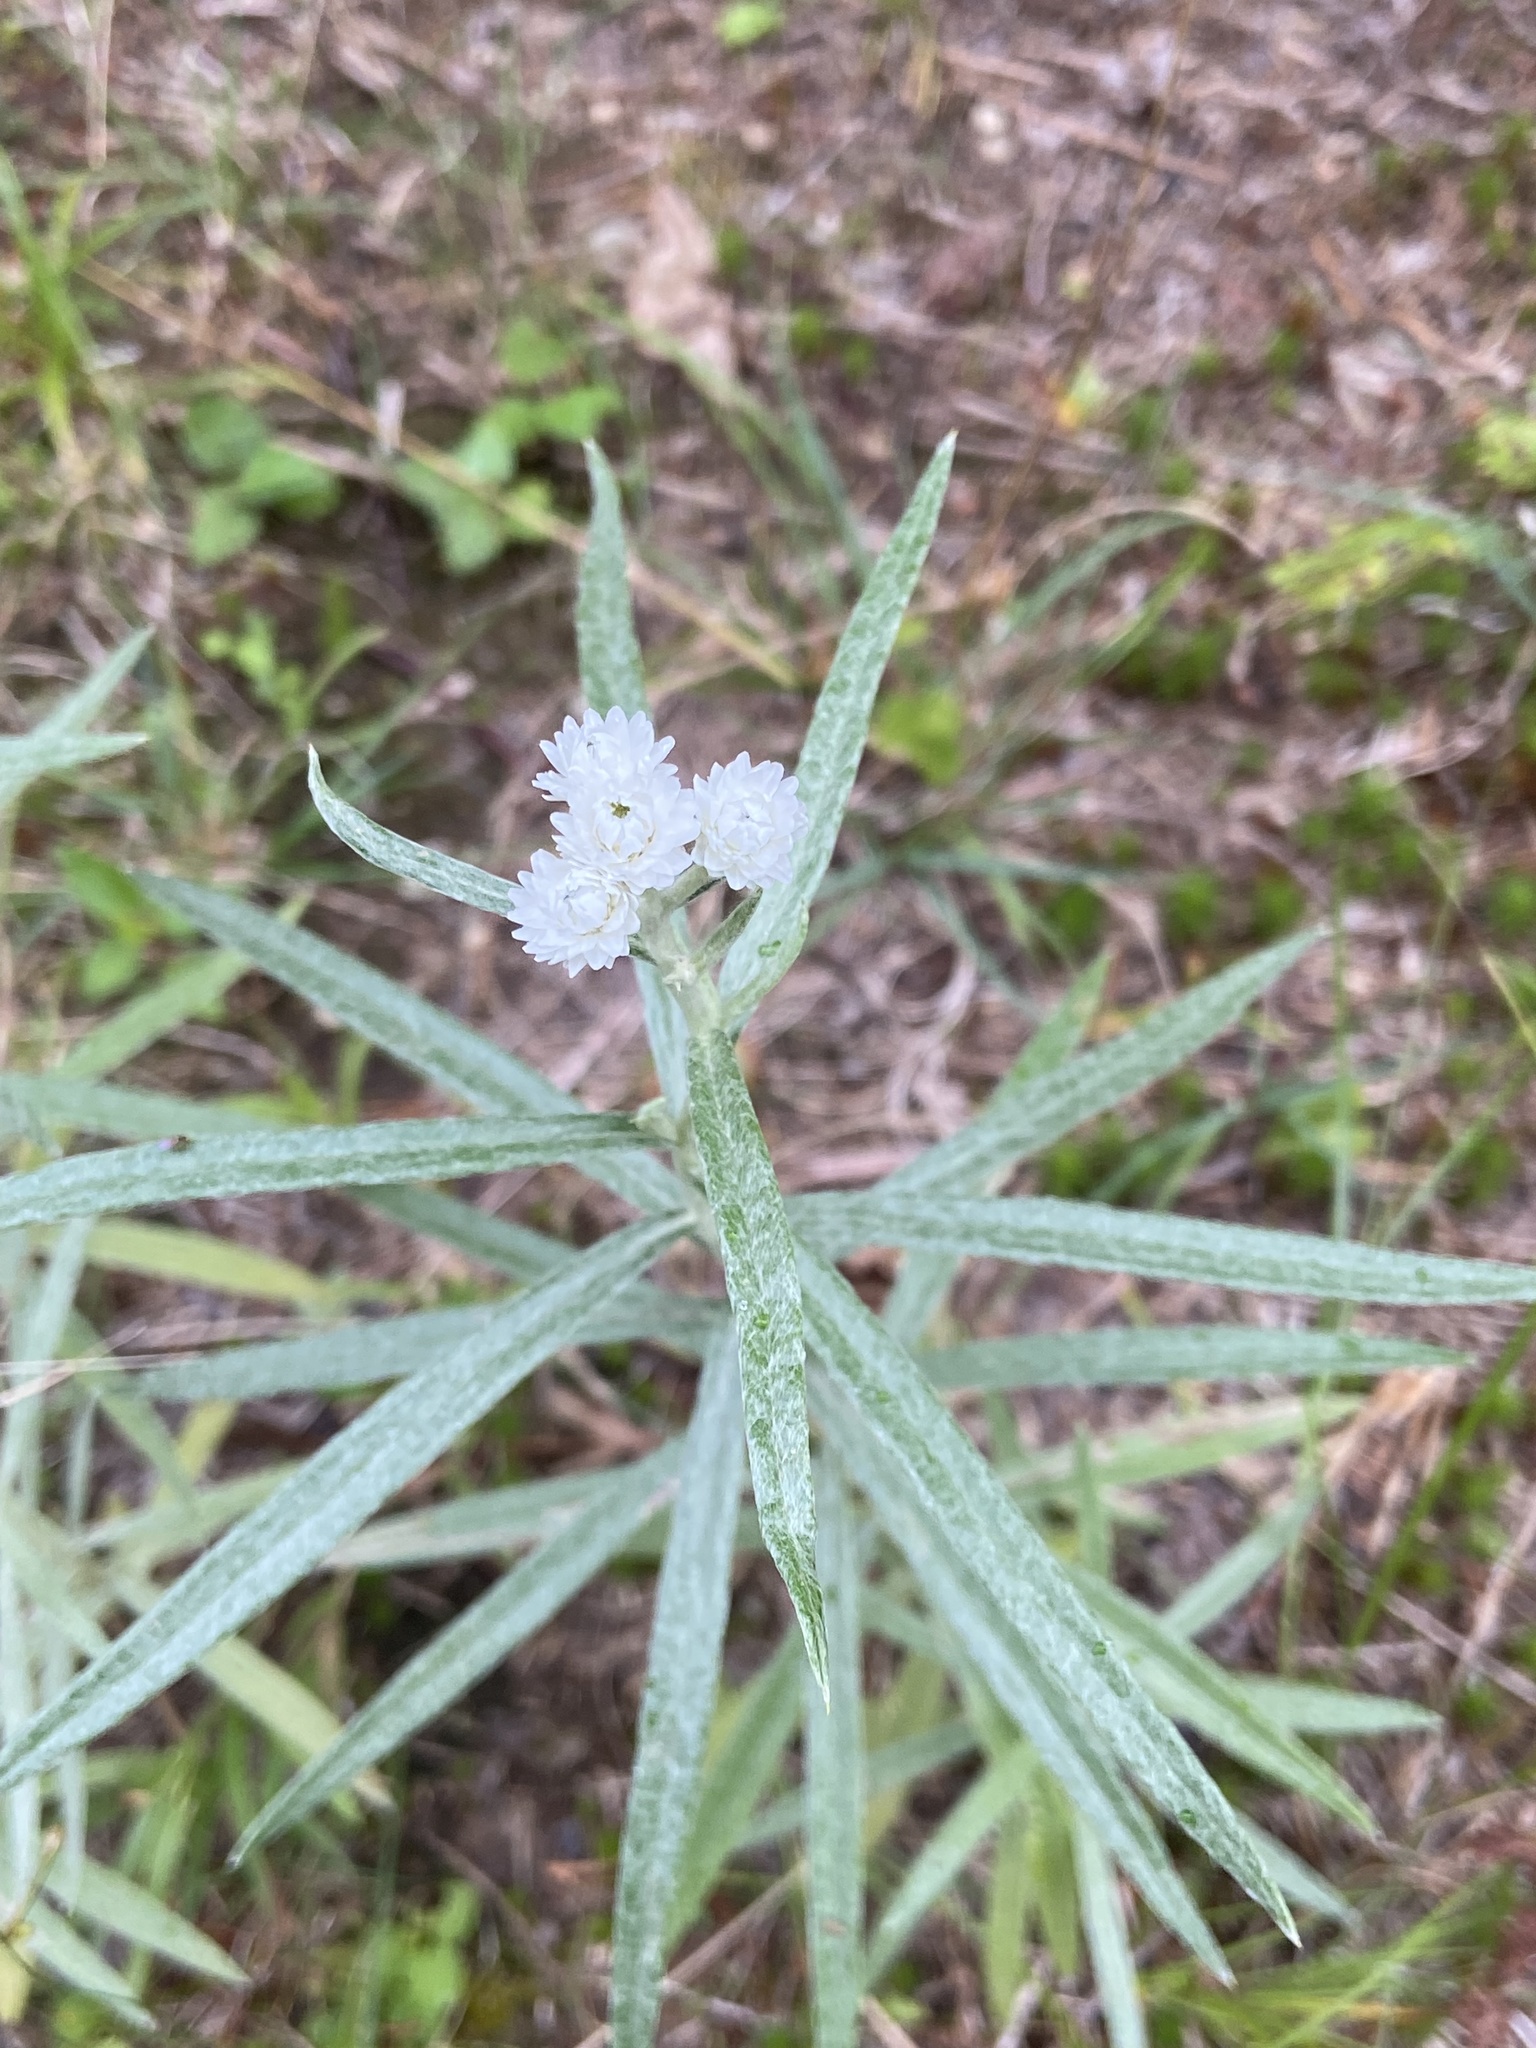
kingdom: Plantae
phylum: Tracheophyta
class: Magnoliopsida
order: Asterales
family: Asteraceae
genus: Anaphalis
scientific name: Anaphalis margaritacea
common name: Pearly everlasting
